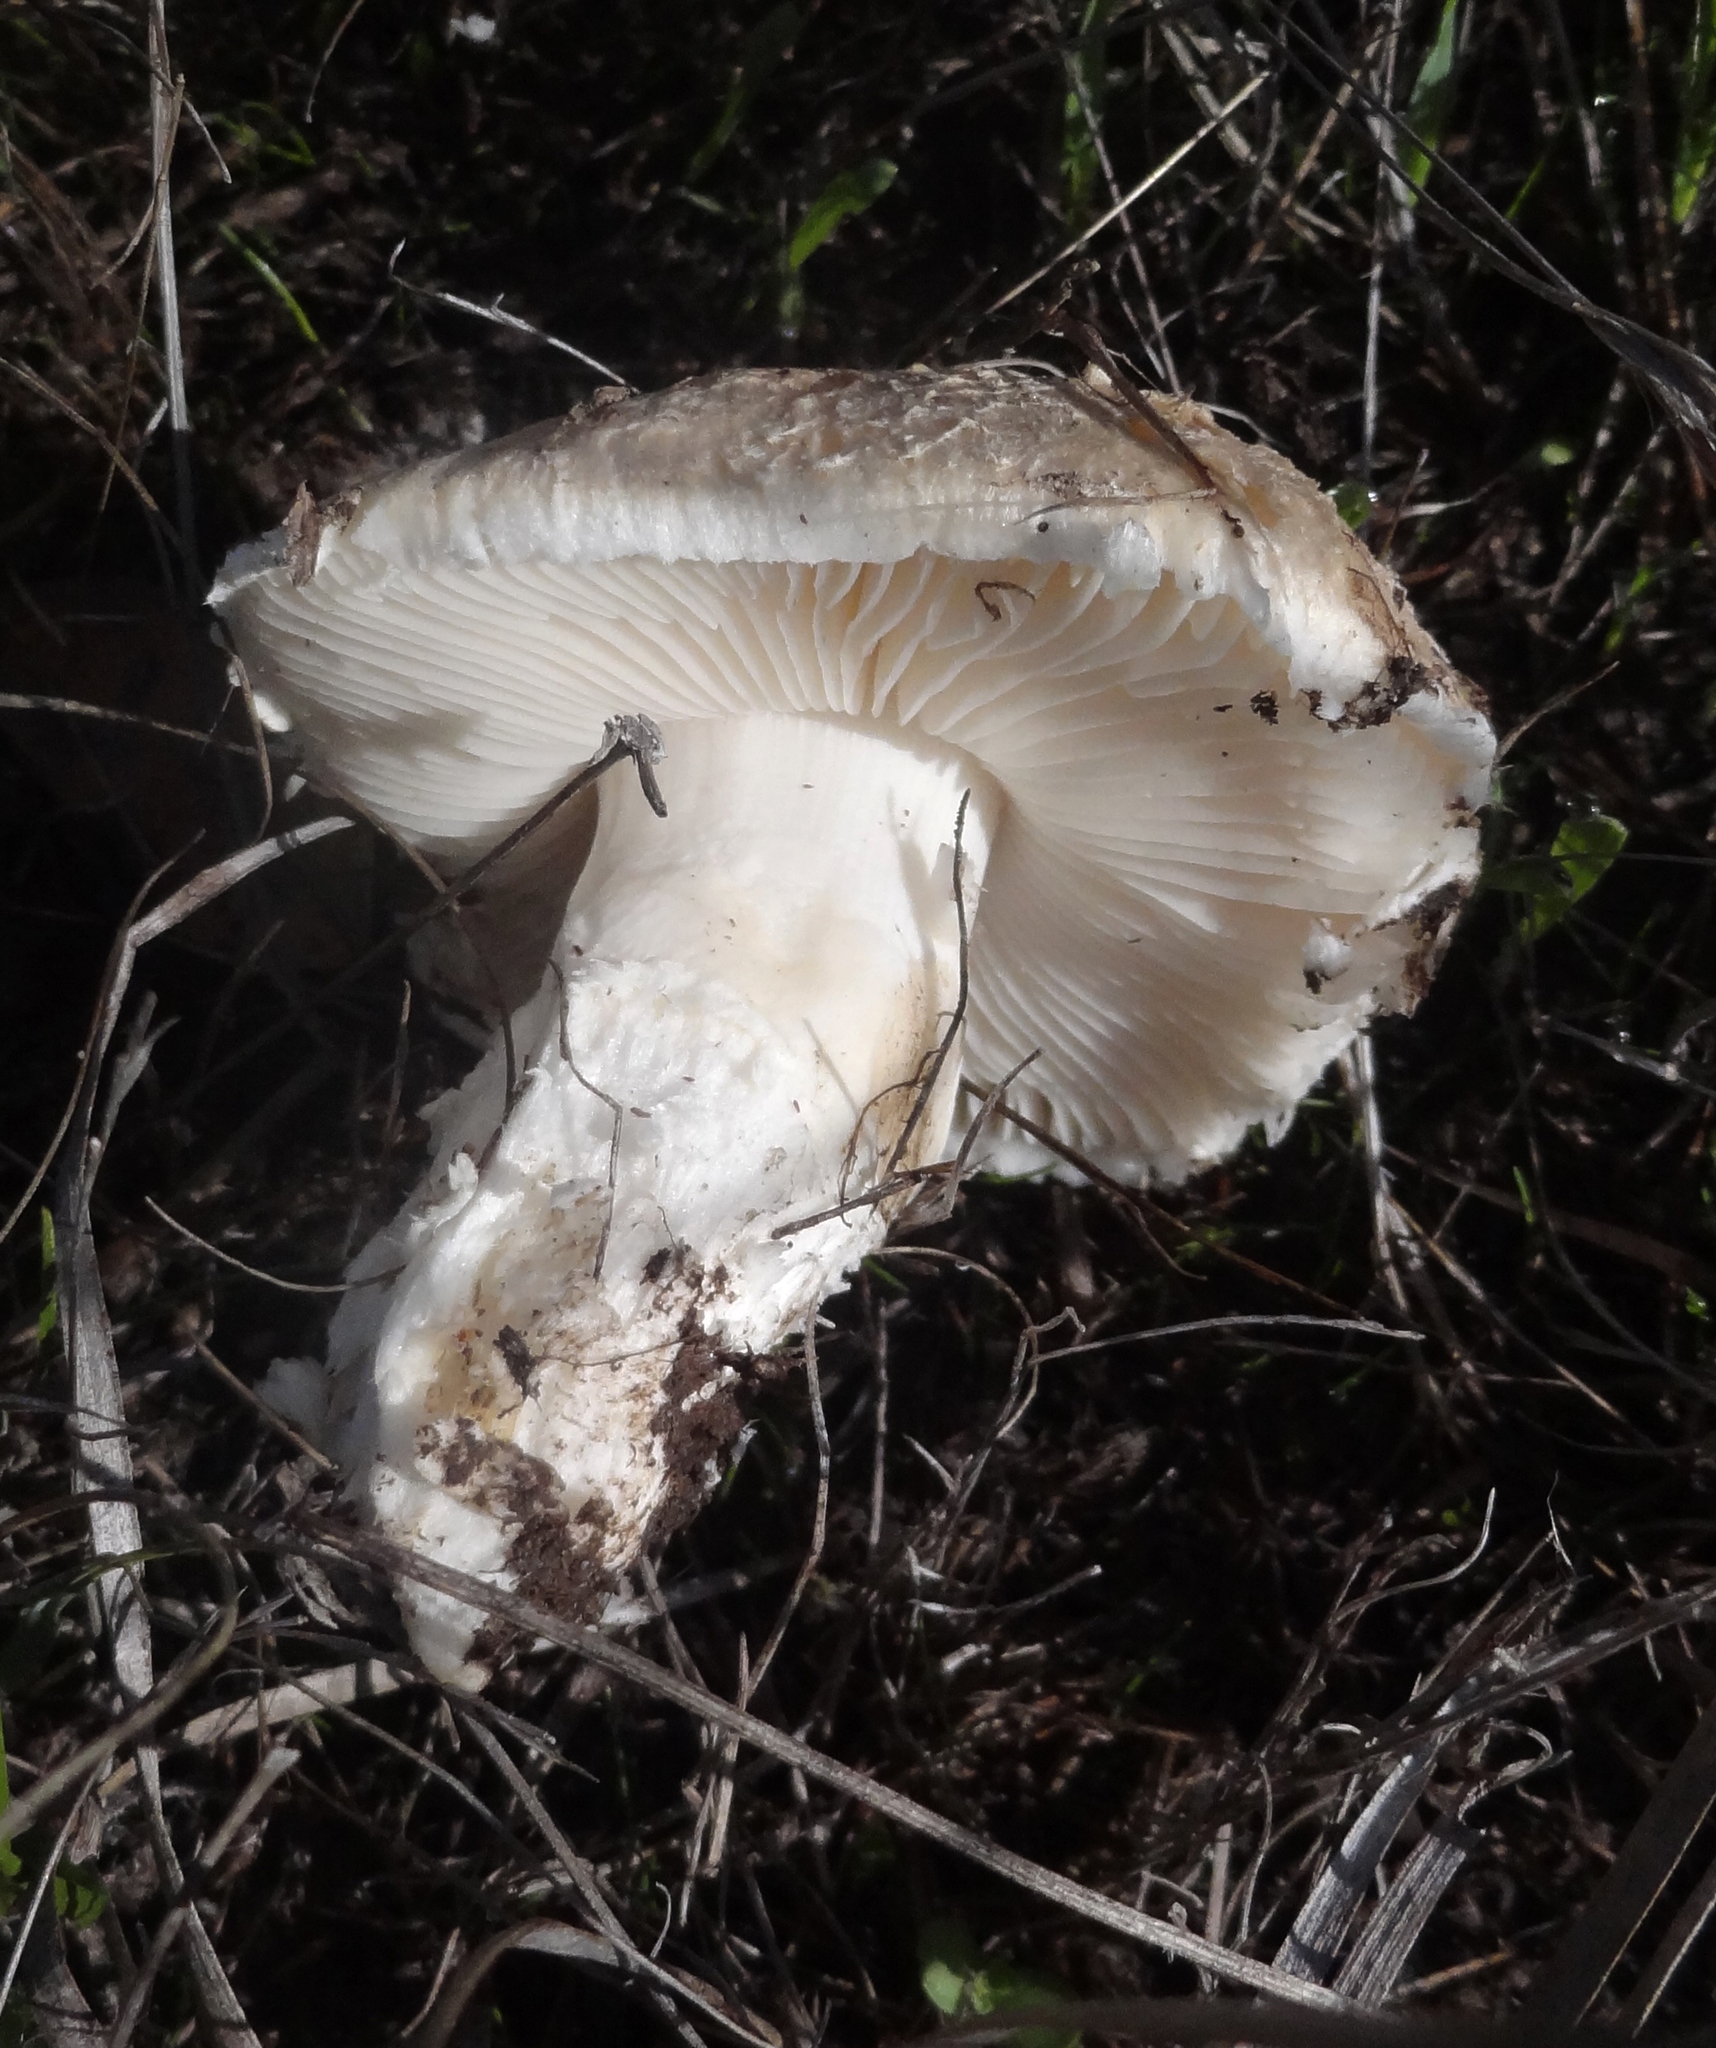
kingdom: Fungi
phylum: Basidiomycota
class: Agaricomycetes
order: Agaricales
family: Amanitaceae
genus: Amanita
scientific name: Amanita pruittii
